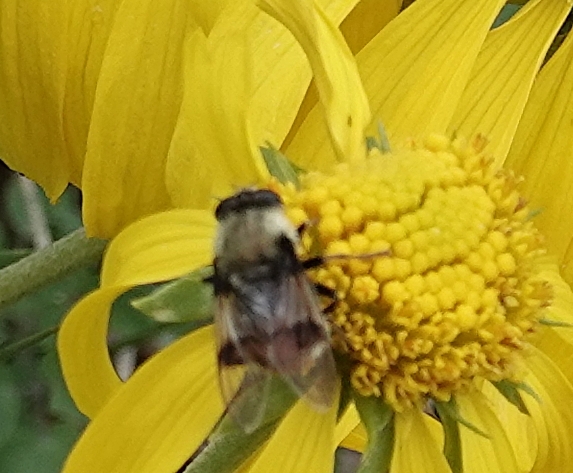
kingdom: Animalia
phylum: Arthropoda
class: Insecta
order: Diptera
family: Syrphidae
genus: Sericomyia
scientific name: Sericomyia flagrans
